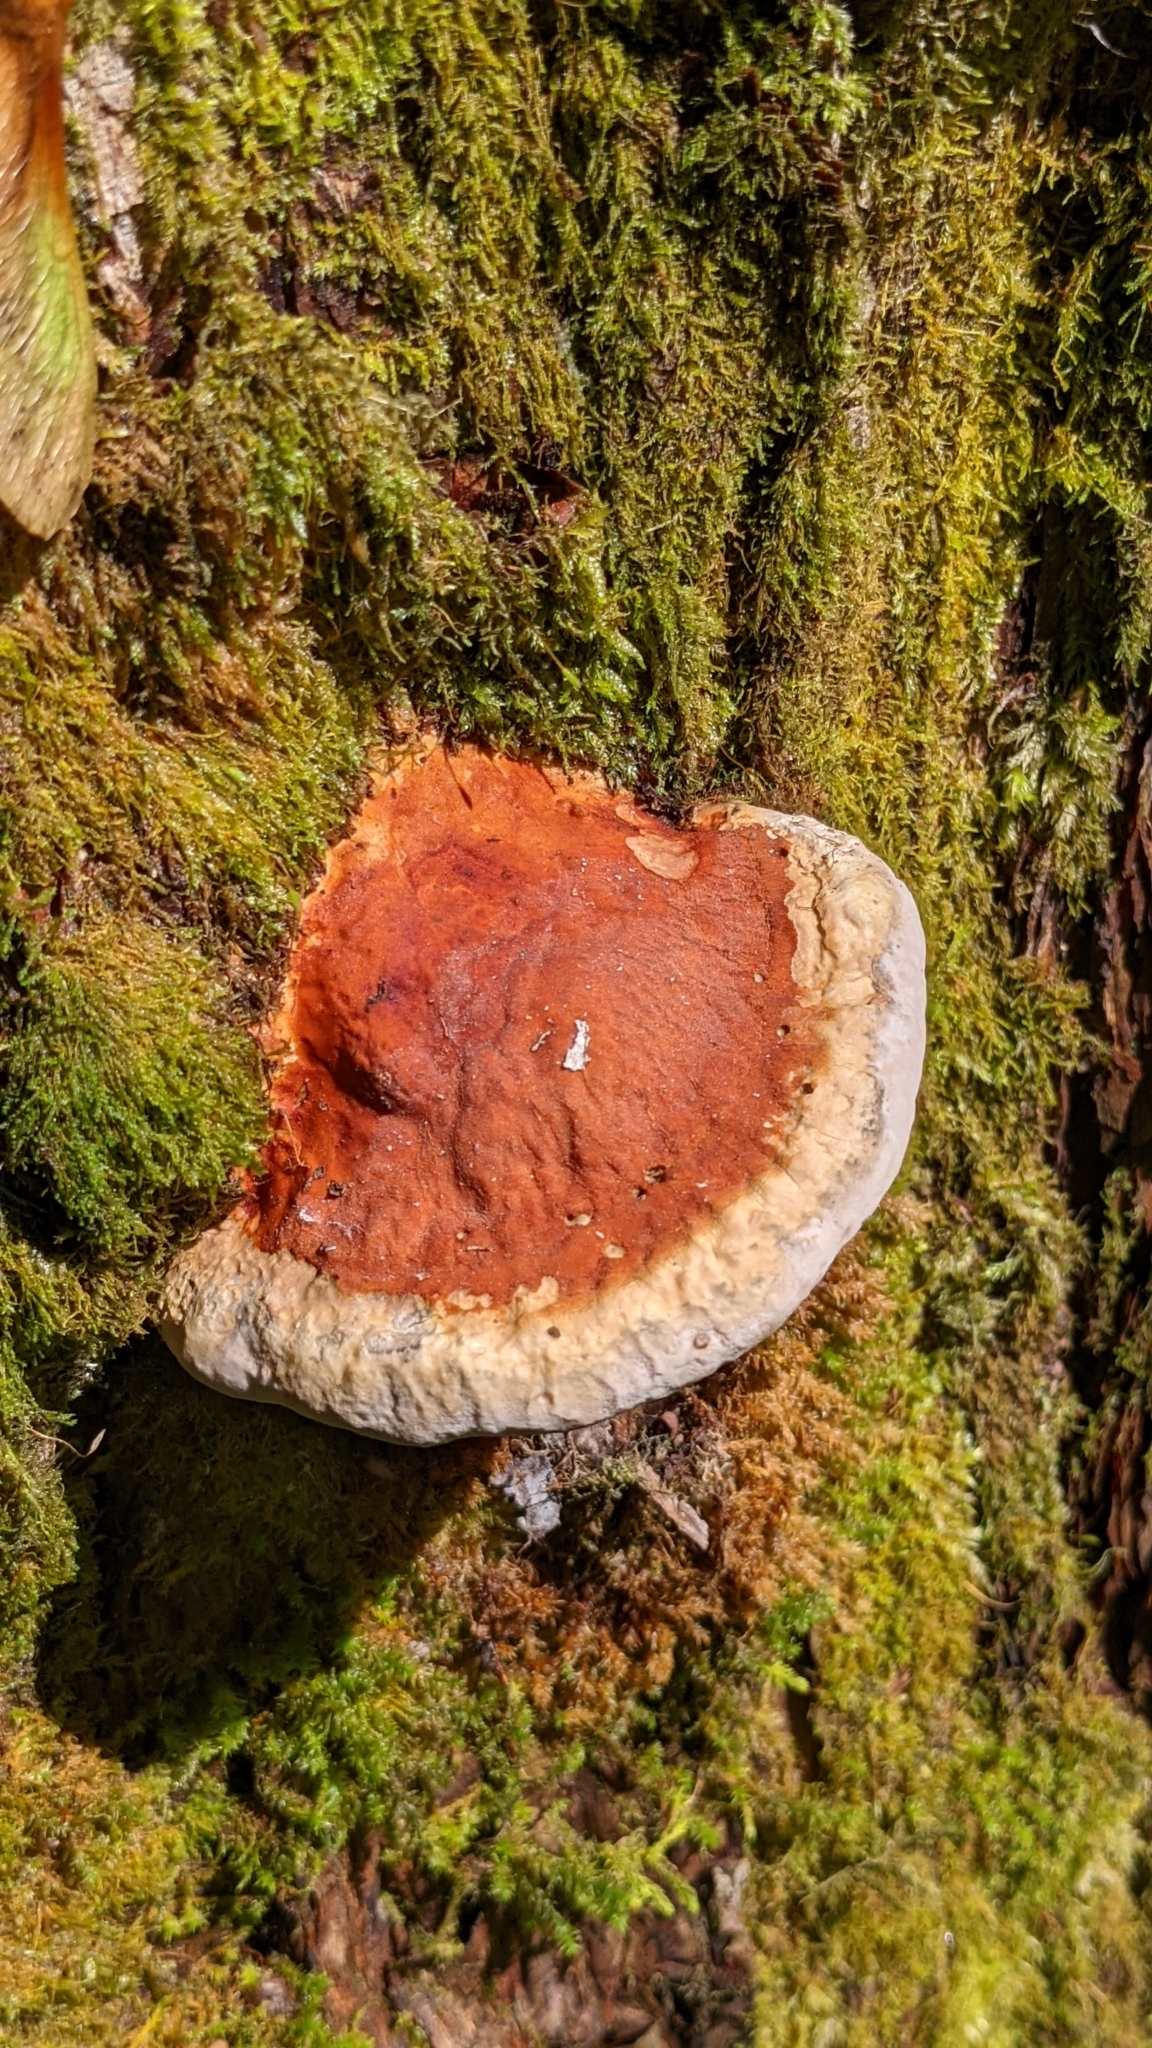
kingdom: Fungi
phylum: Basidiomycota
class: Agaricomycetes
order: Polyporales
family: Fomitopsidaceae
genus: Fomitopsis
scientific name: Fomitopsis pinicola
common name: Red-belted bracket
